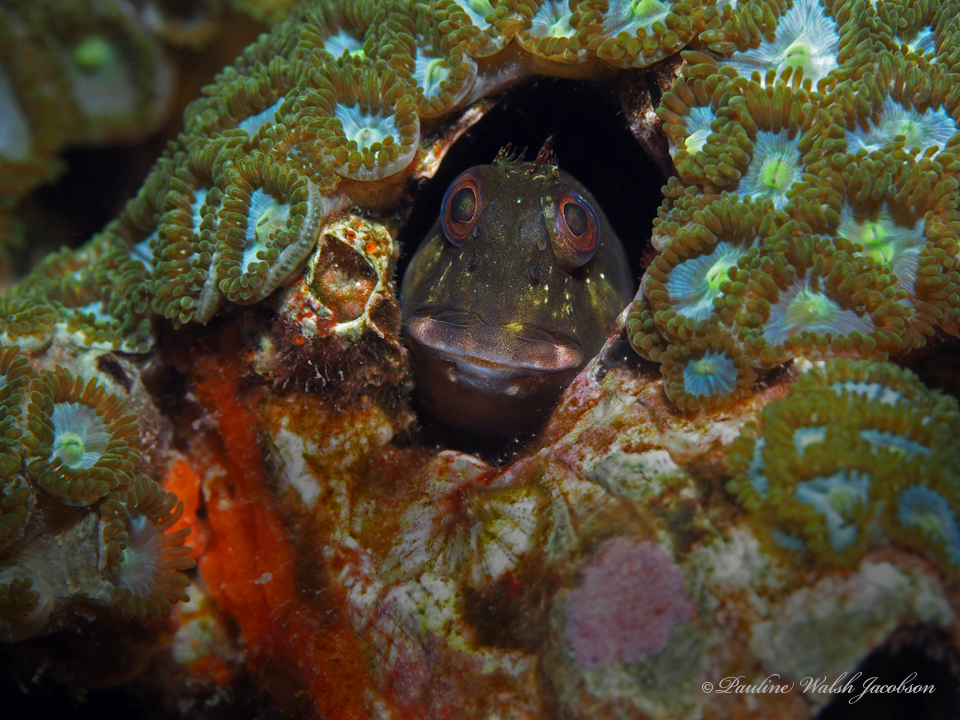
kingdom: Animalia
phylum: Chordata
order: Perciformes
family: Blenniidae
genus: Scartella
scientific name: Scartella cristata
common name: Molly miller
